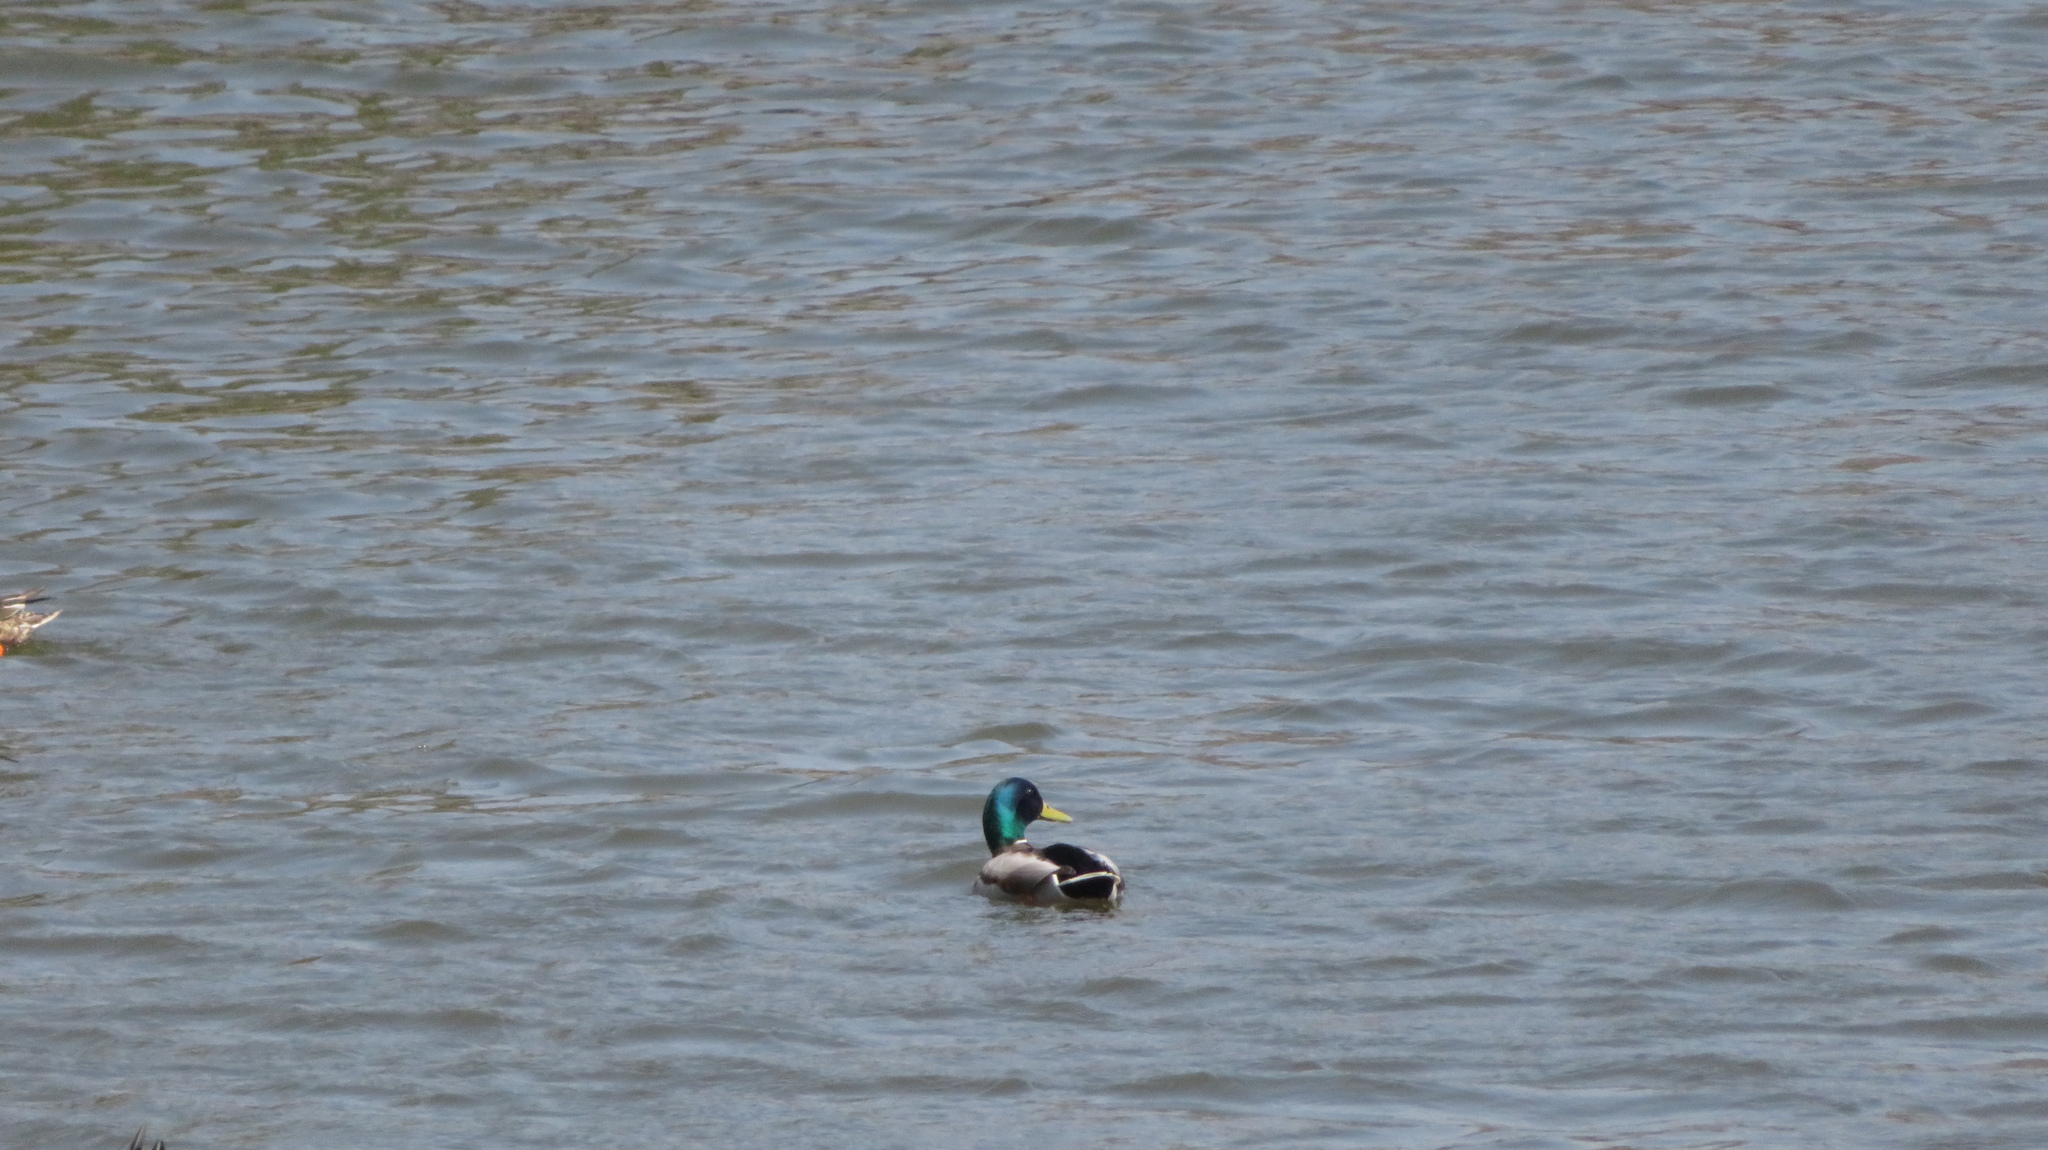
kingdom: Animalia
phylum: Chordata
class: Aves
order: Anseriformes
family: Anatidae
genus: Anas
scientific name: Anas platyrhynchos
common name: Mallard
